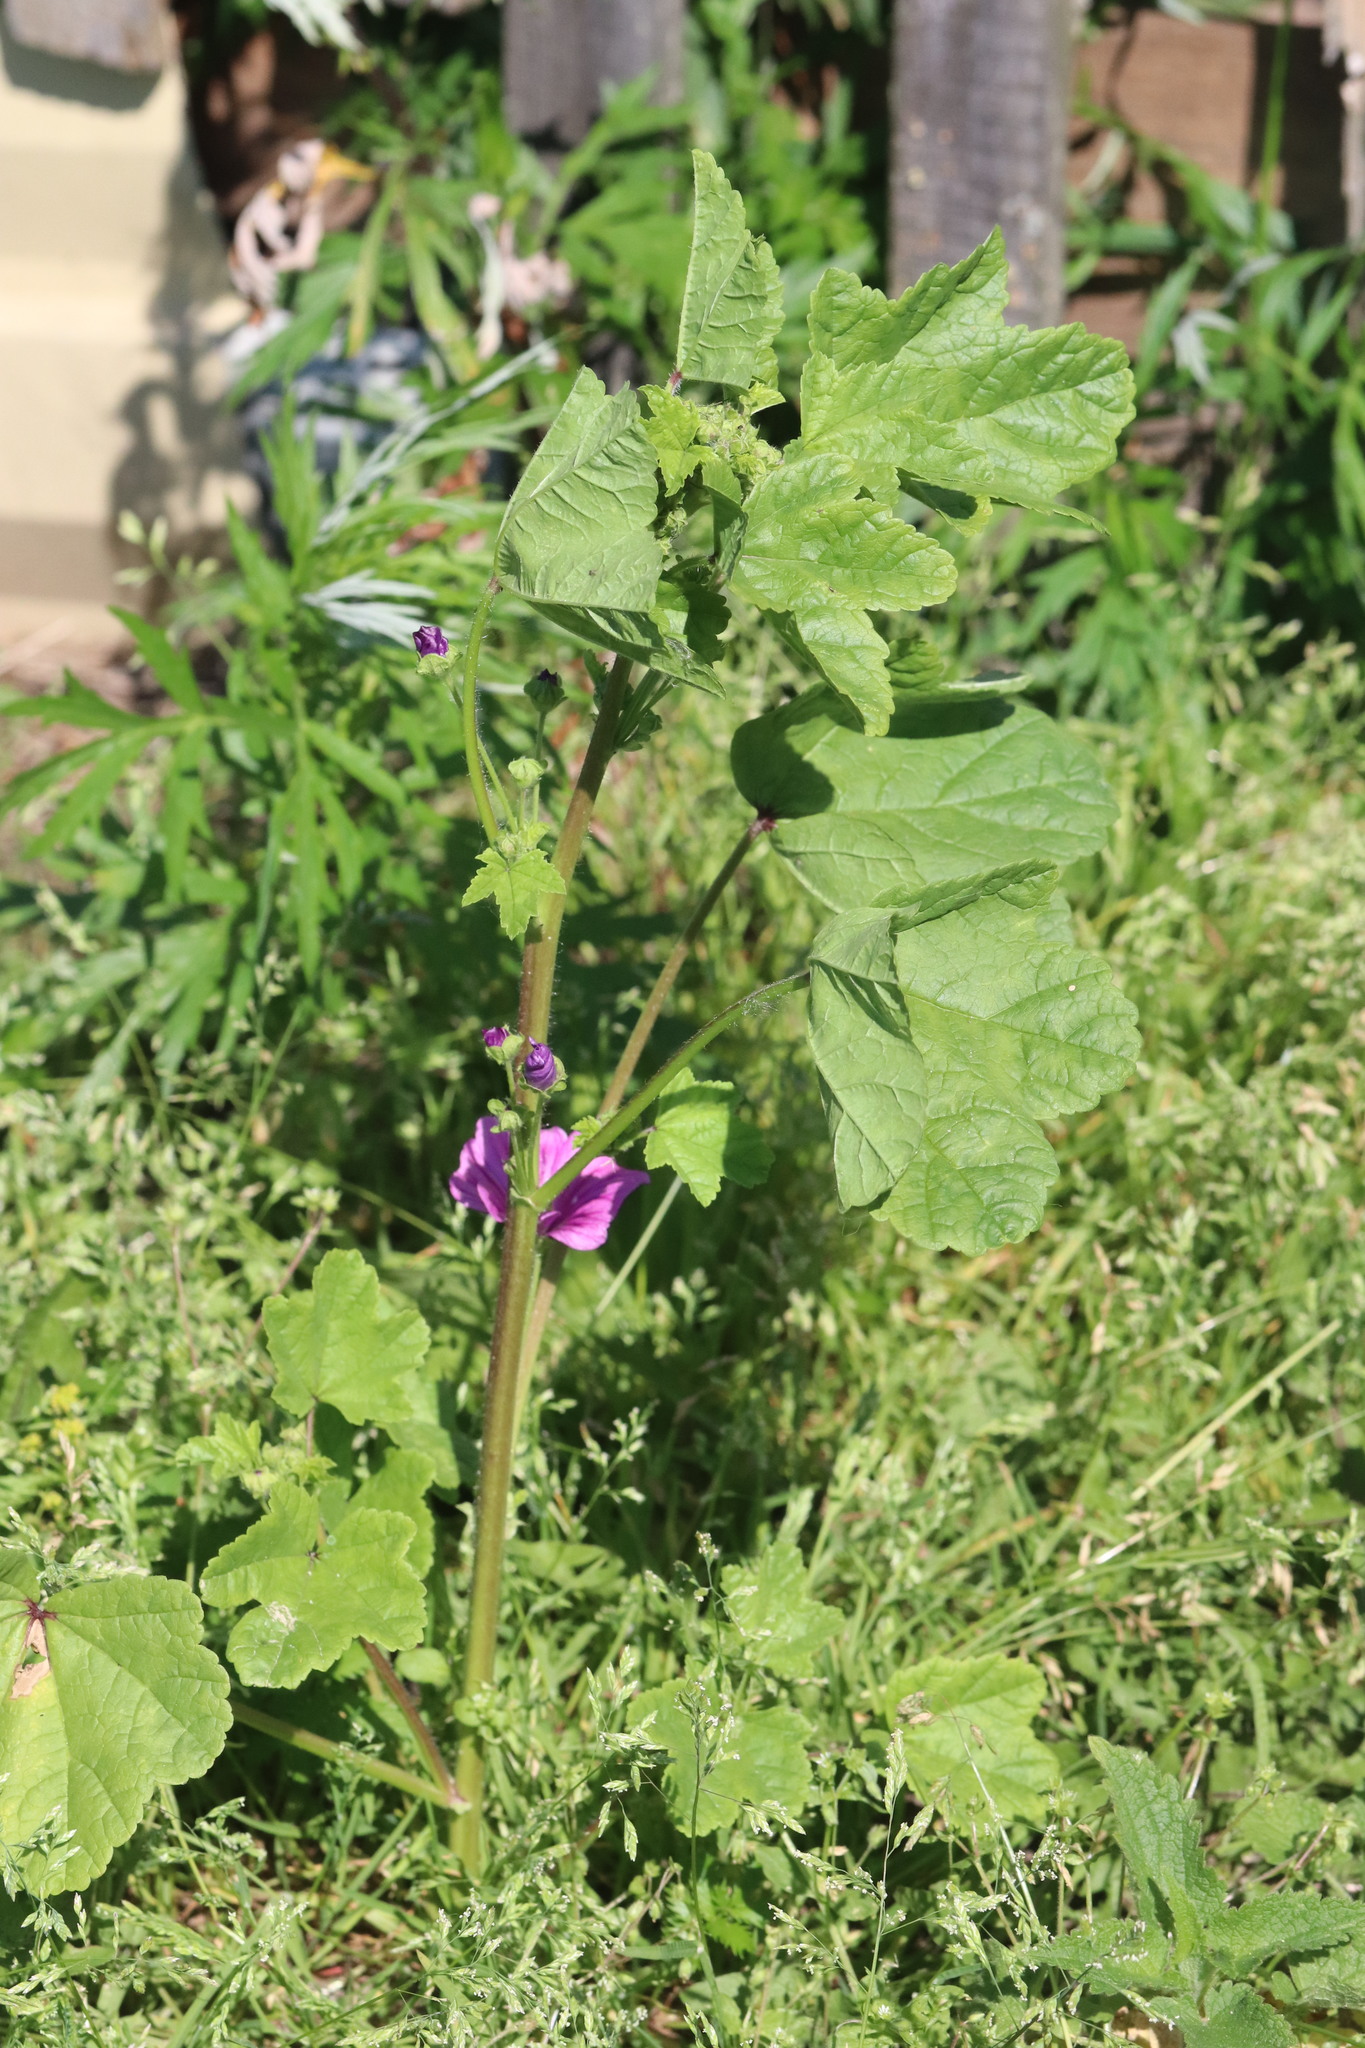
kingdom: Plantae
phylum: Tracheophyta
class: Magnoliopsida
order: Malvales
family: Malvaceae
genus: Malva
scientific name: Malva sylvestris
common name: Common mallow
